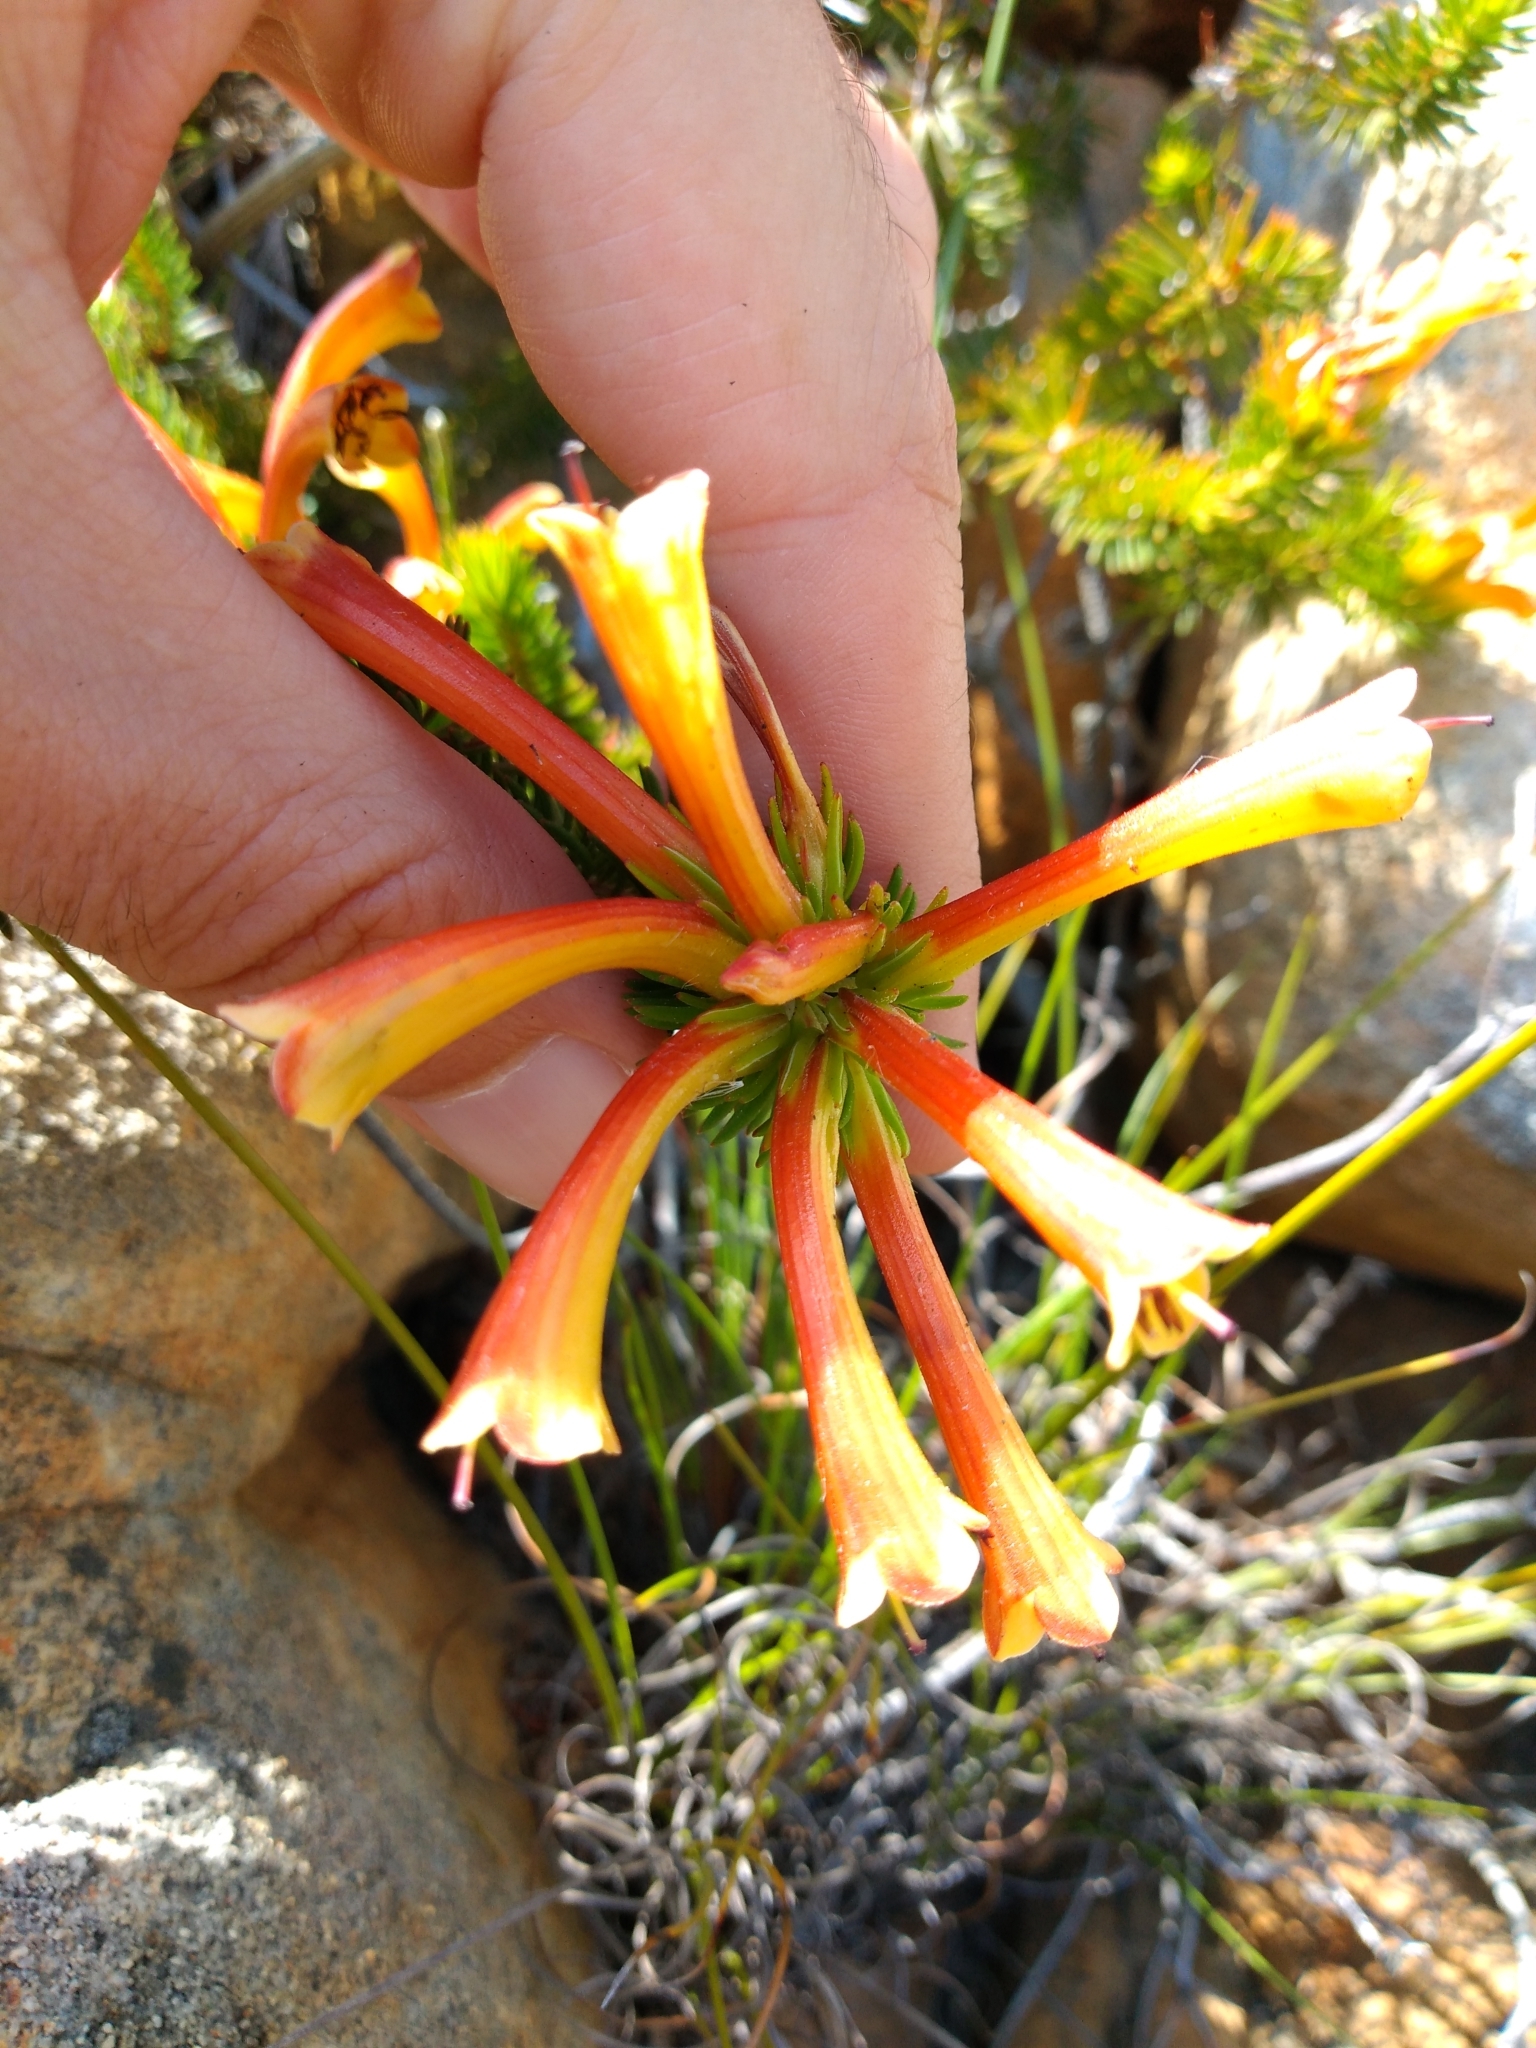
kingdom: Plantae
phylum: Tracheophyta
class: Magnoliopsida
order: Ericales
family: Ericaceae
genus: Erica
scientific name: Erica quadrisulcata
